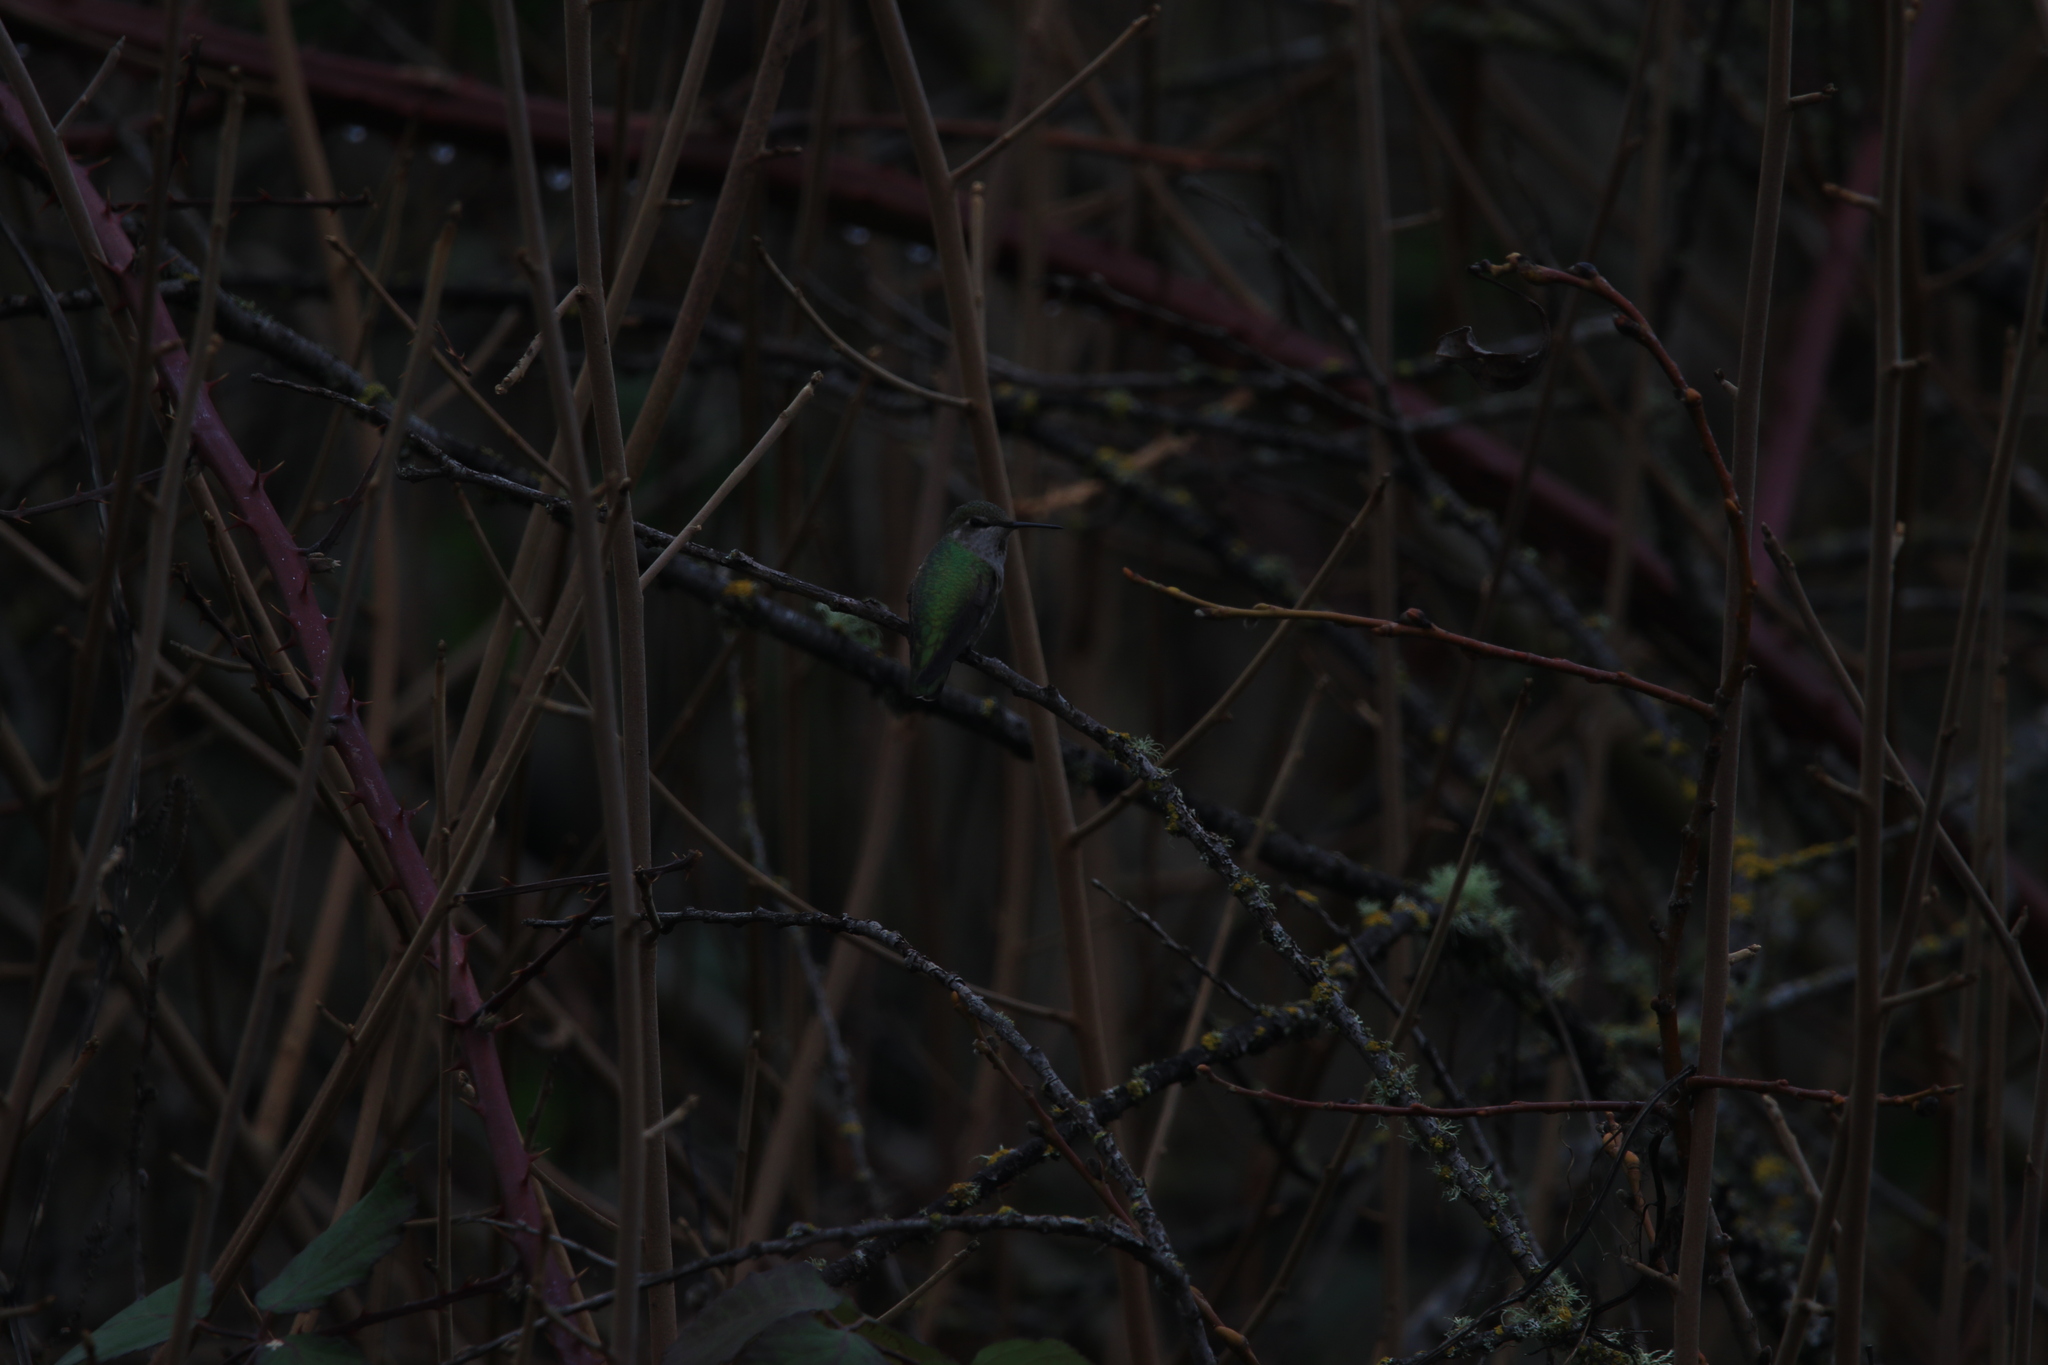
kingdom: Animalia
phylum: Chordata
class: Aves
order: Apodiformes
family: Trochilidae
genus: Calypte
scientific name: Calypte anna
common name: Anna's hummingbird
